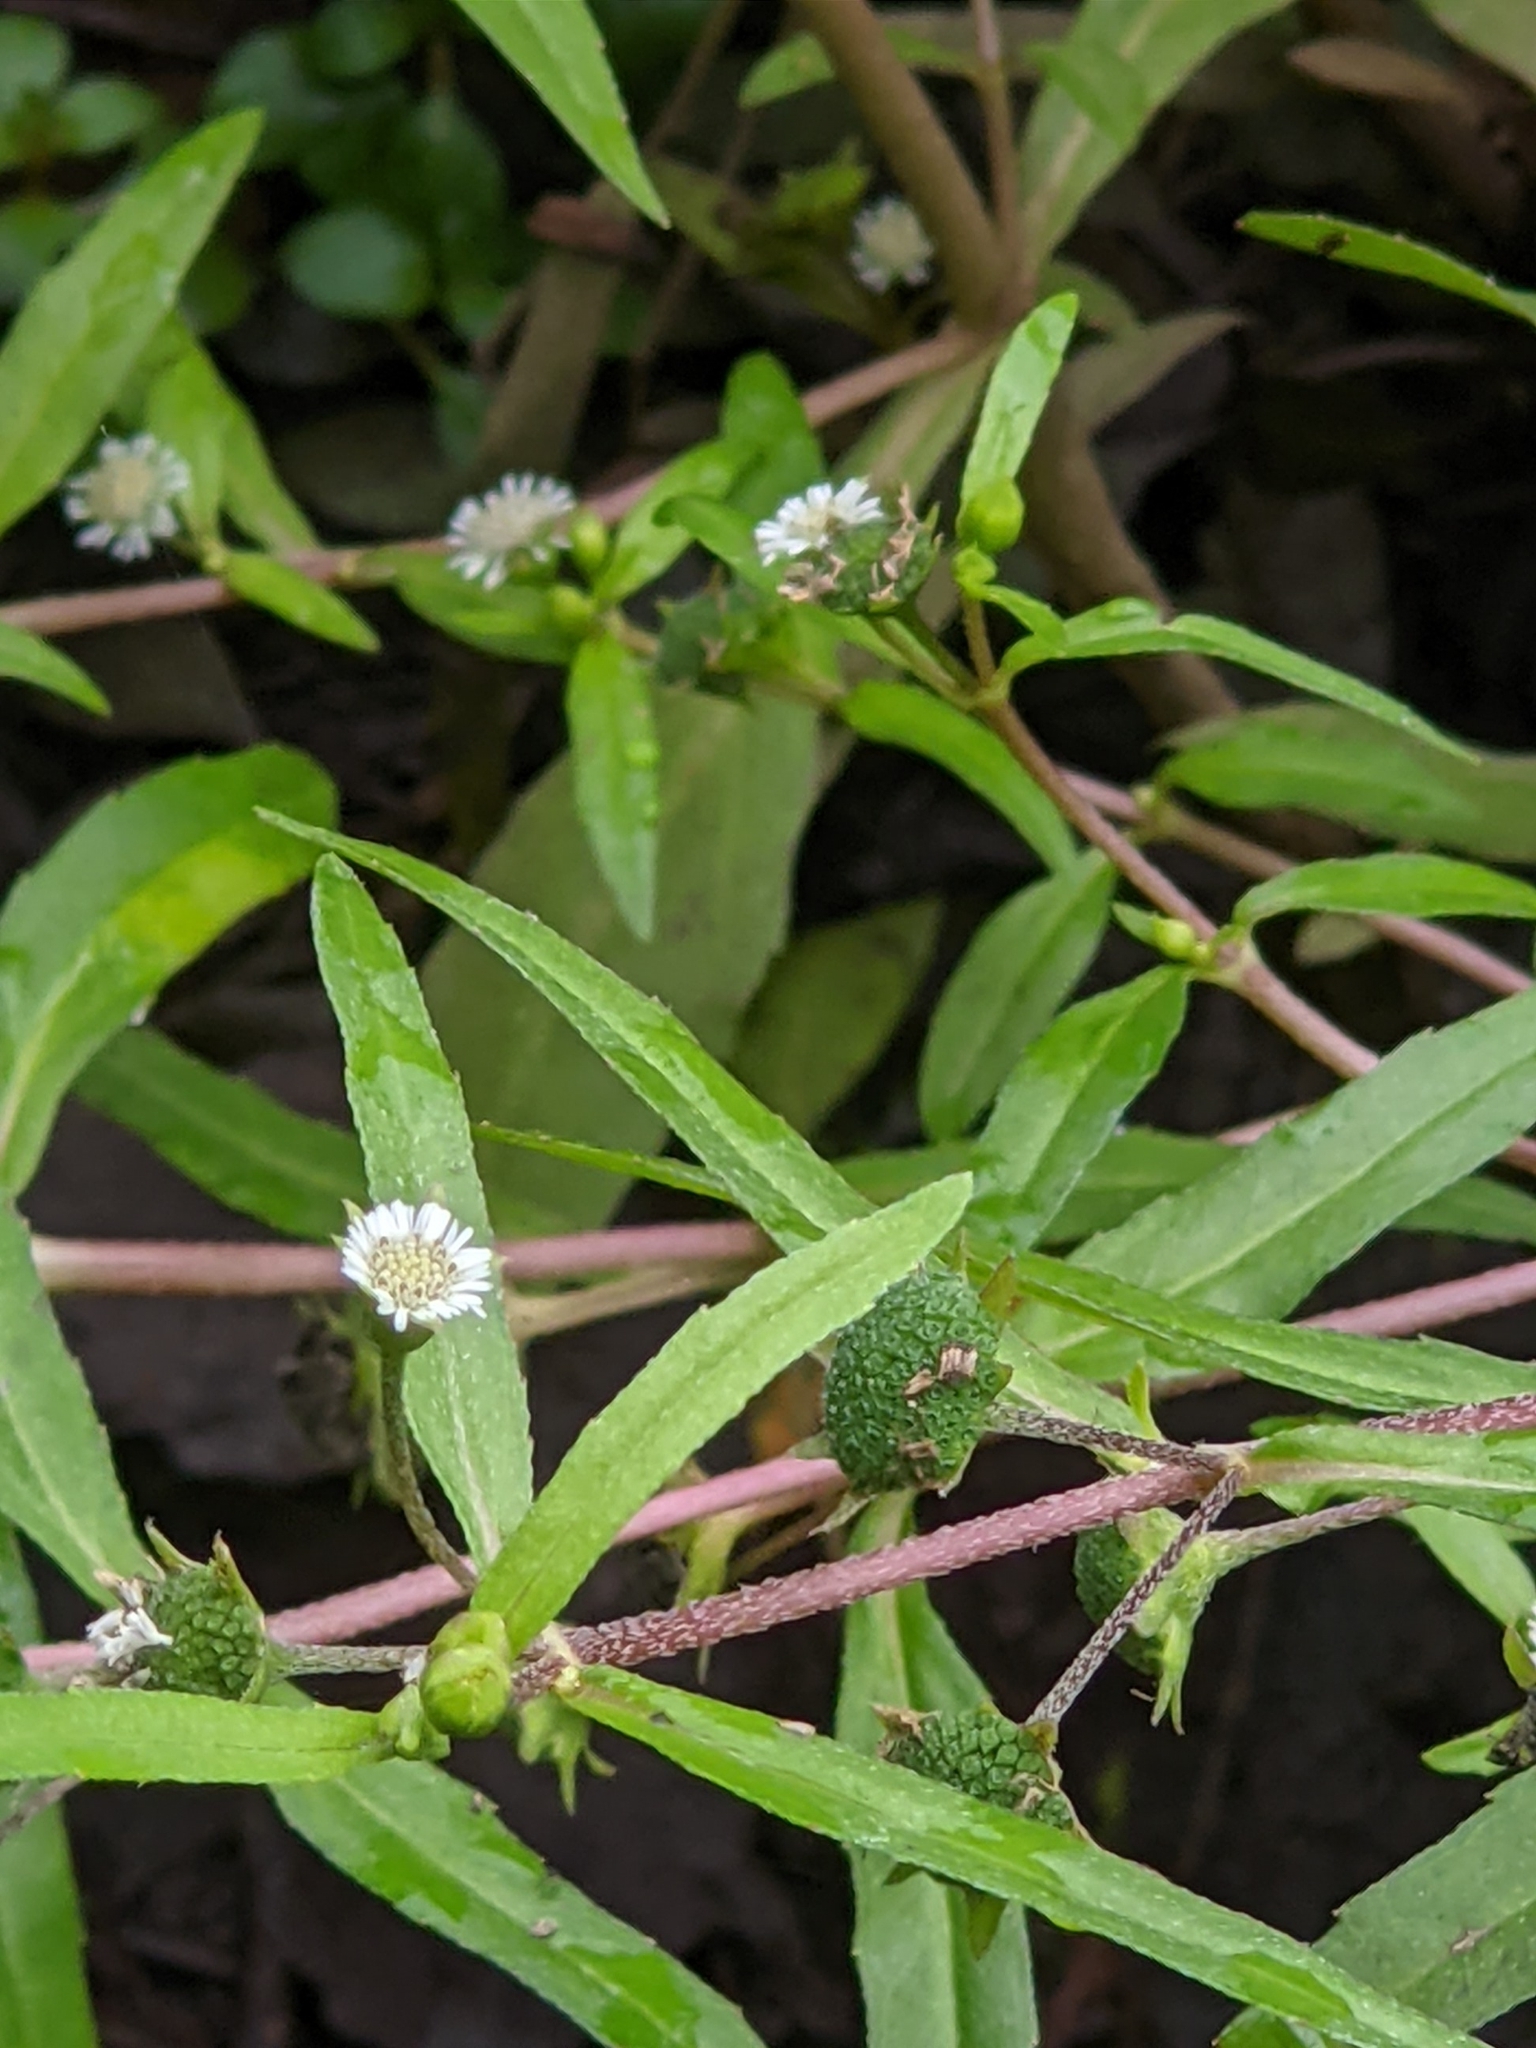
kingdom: Plantae
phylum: Tracheophyta
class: Magnoliopsida
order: Asterales
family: Asteraceae
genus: Eclipta
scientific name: Eclipta prostrata
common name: False daisy
